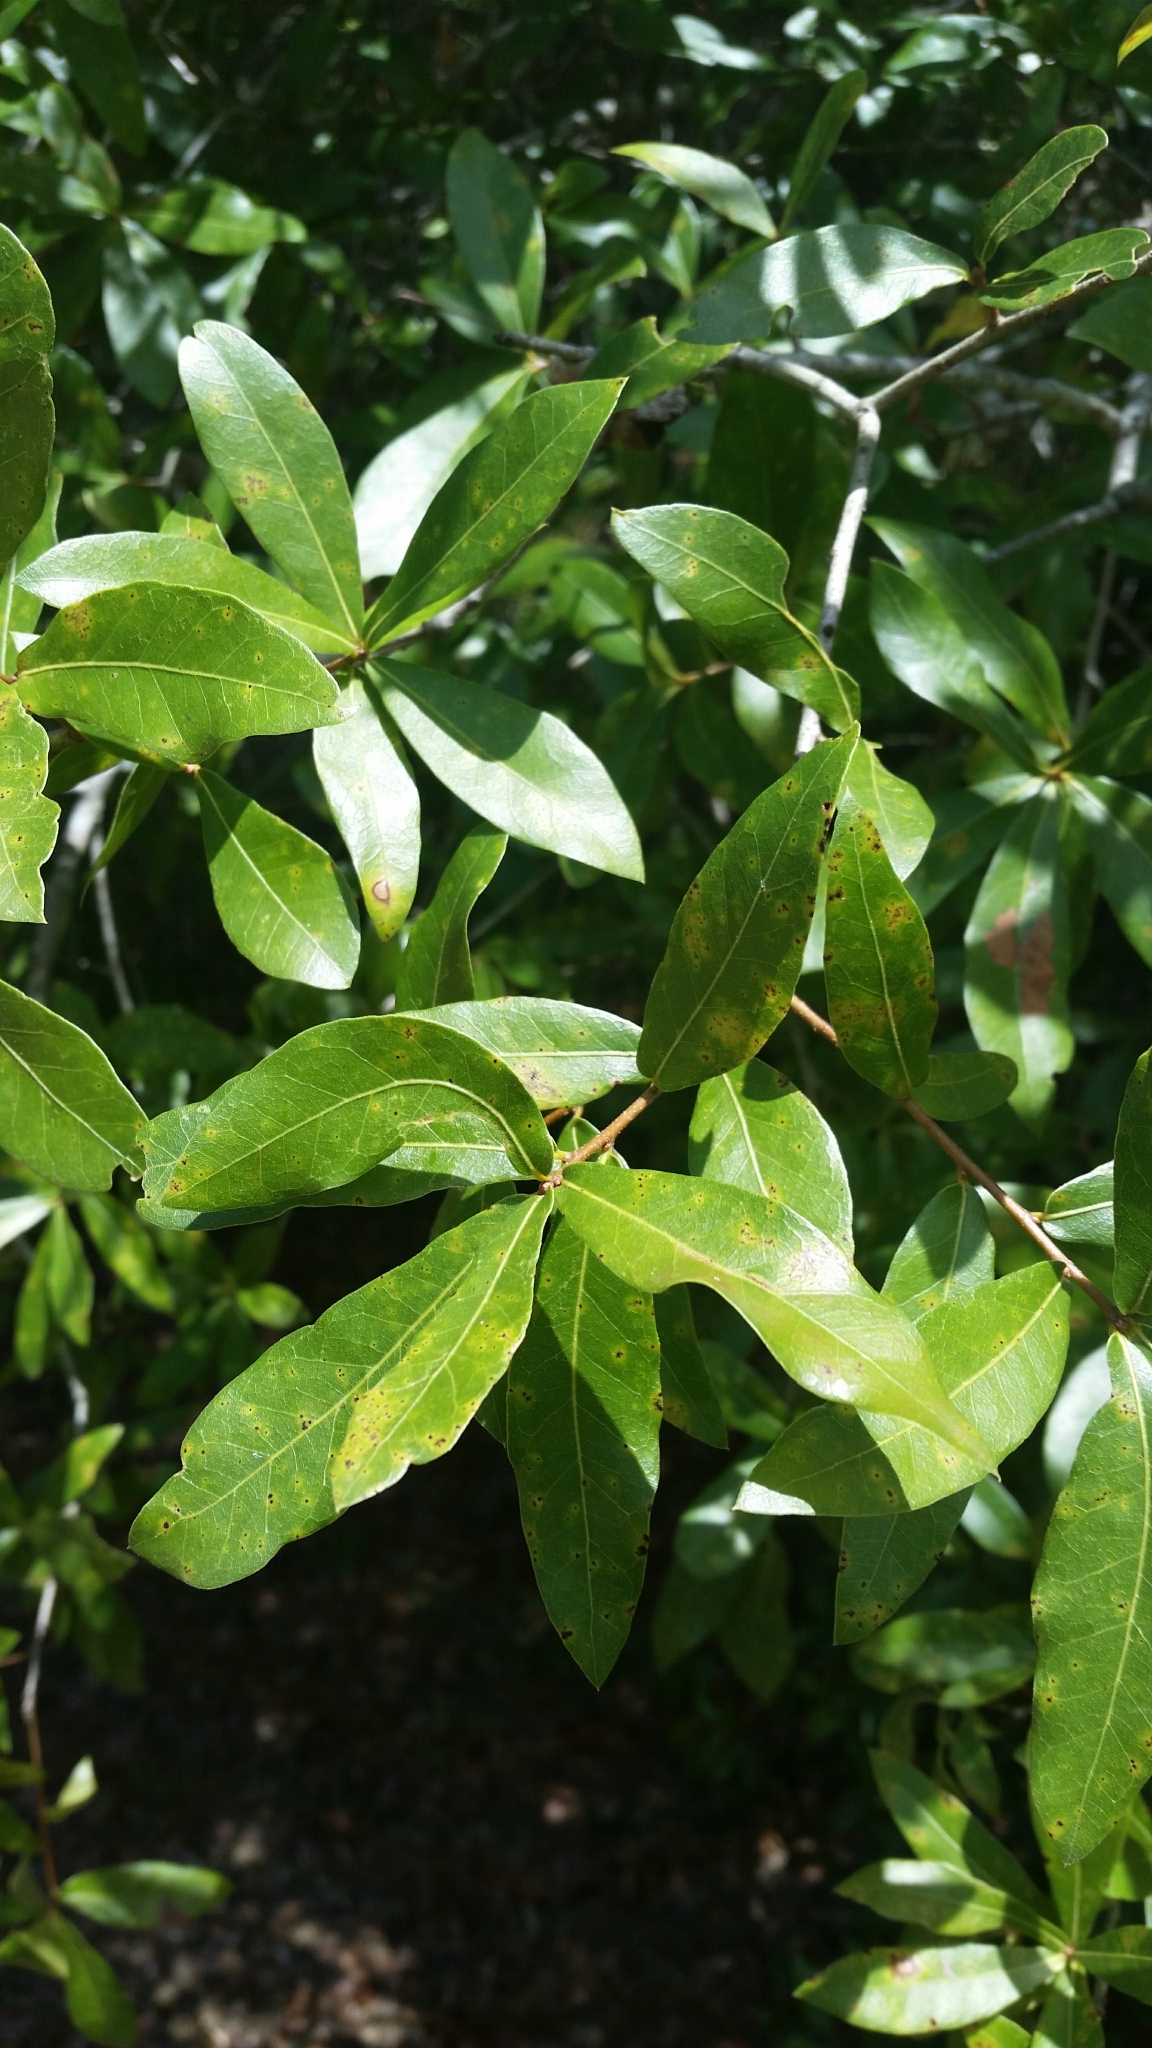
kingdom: Plantae
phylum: Tracheophyta
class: Magnoliopsida
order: Fagales
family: Fagaceae
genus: Quercus
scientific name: Quercus hemisphaerica
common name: Darlington oak
